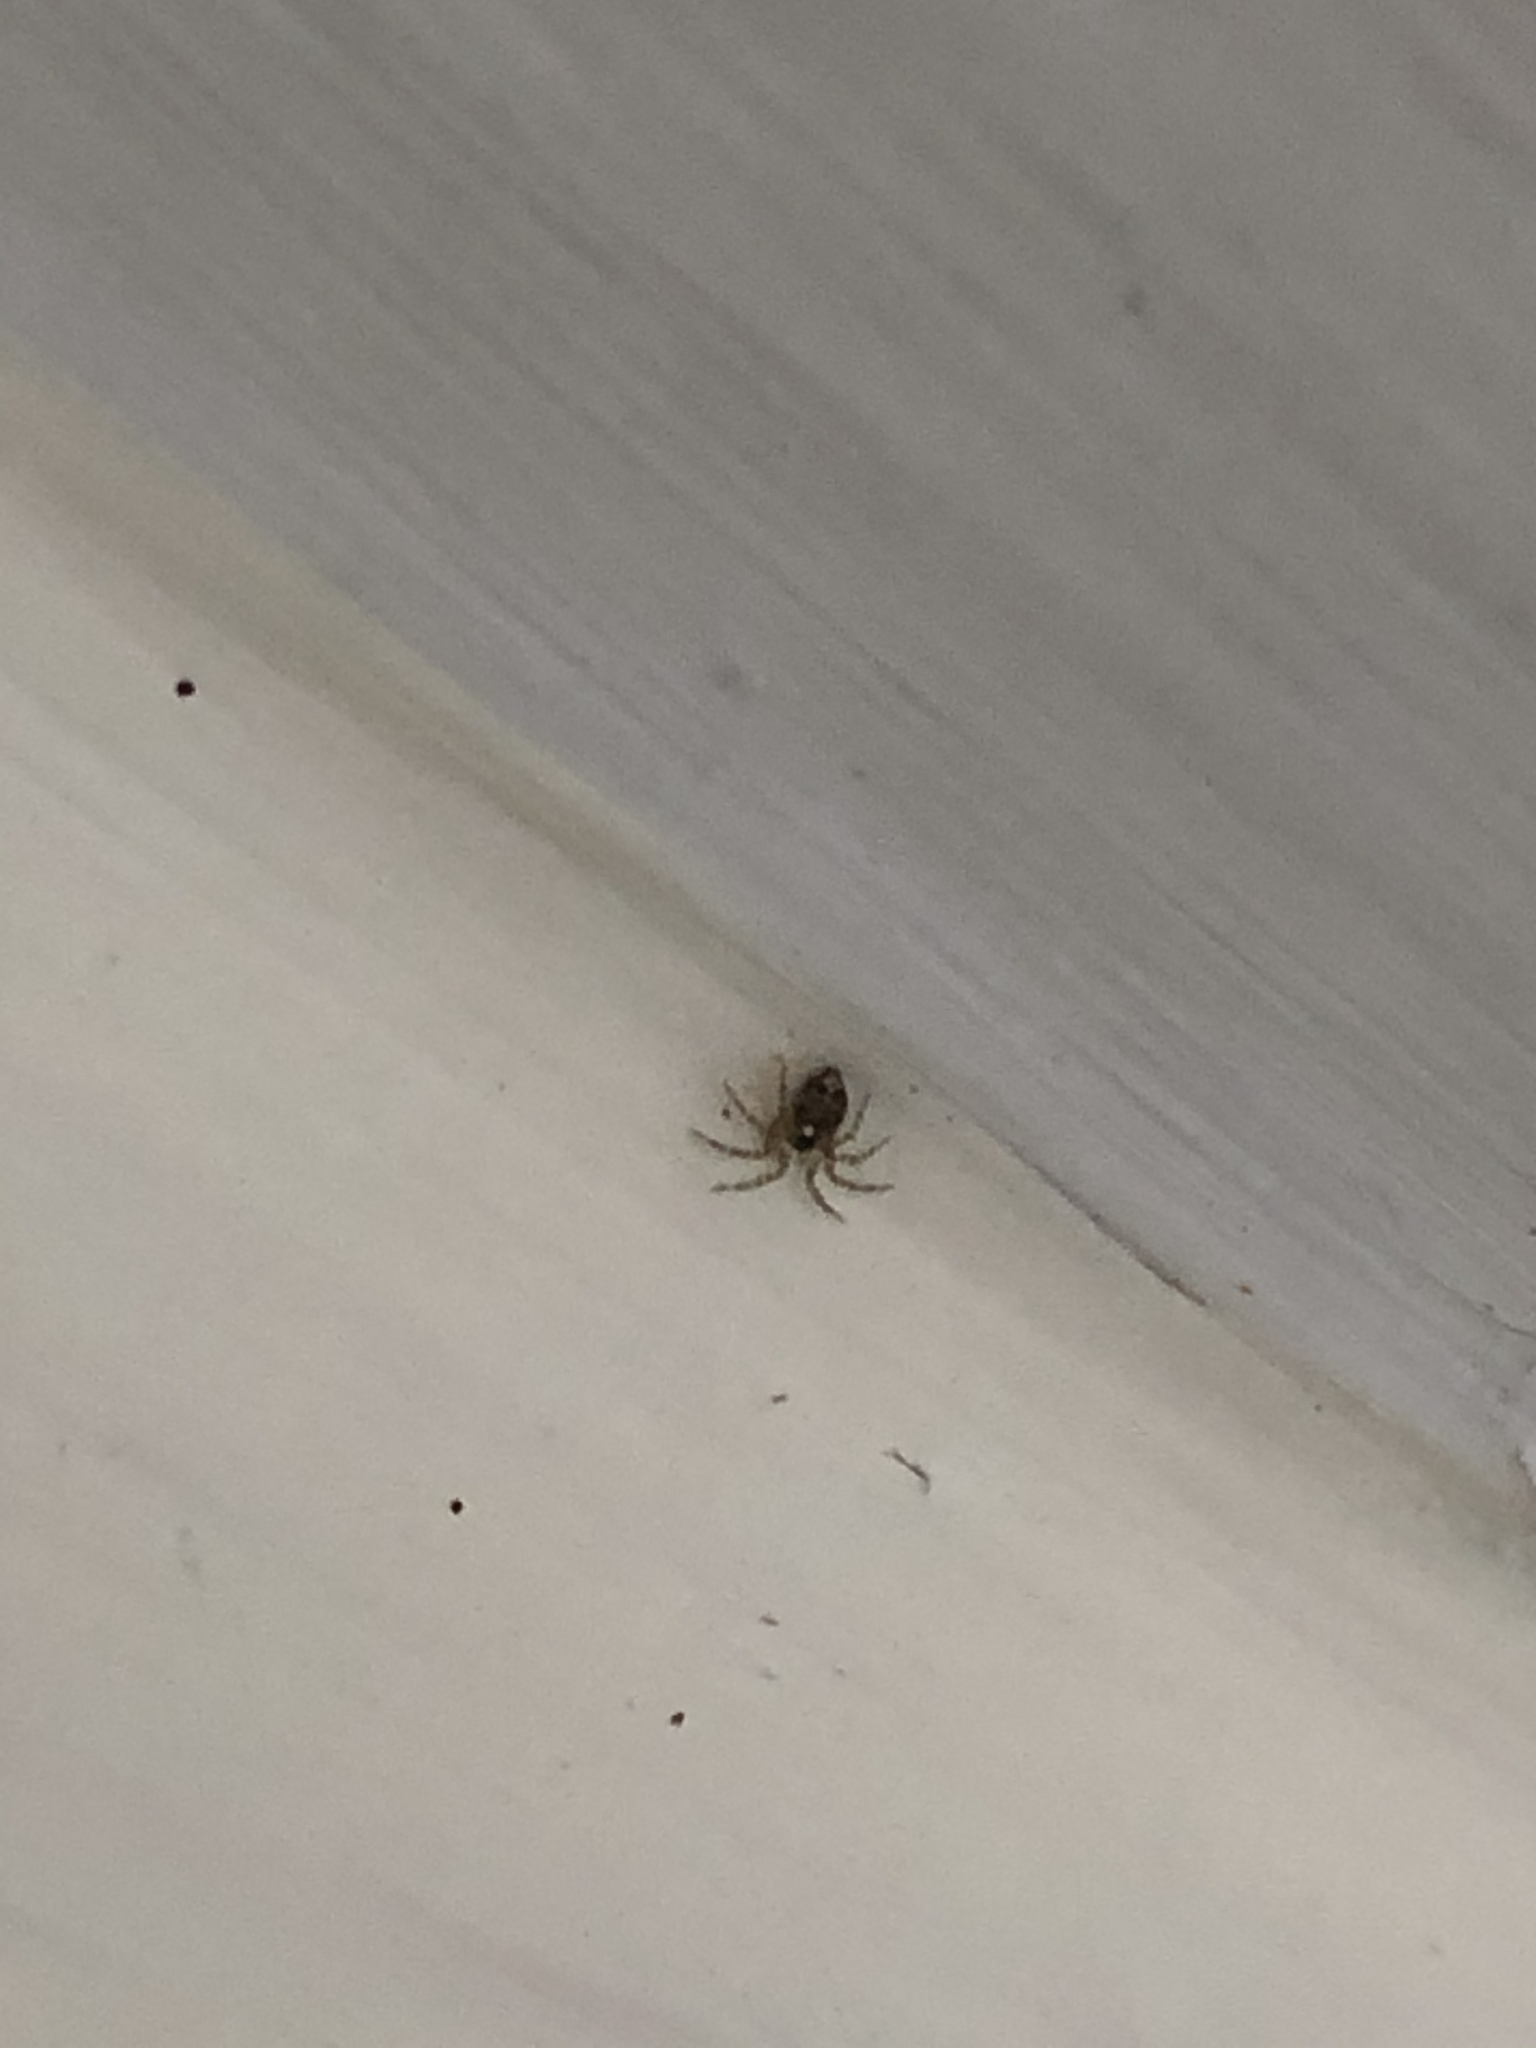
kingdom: Animalia
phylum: Arthropoda
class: Arachnida
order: Araneae
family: Oecobiidae
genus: Oecobius
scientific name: Oecobius navus
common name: Flatmesh weaver
